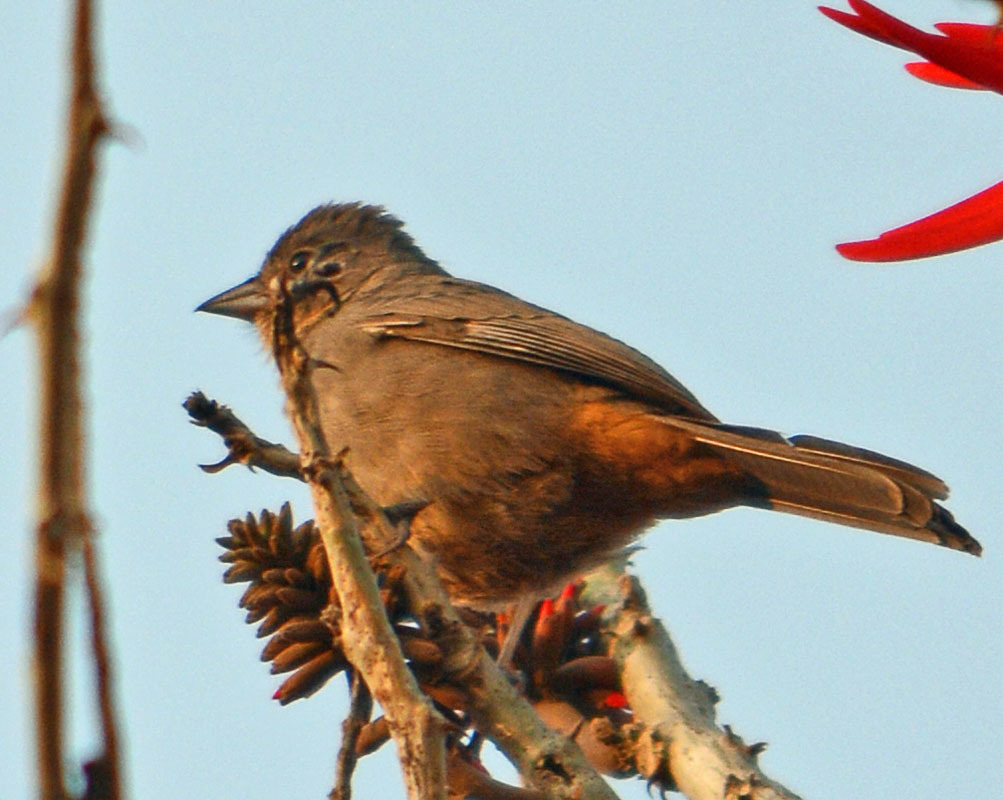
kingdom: Animalia
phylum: Chordata
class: Aves
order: Passeriformes
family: Passerellidae
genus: Melozone
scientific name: Melozone fusca
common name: Canyon towhee
